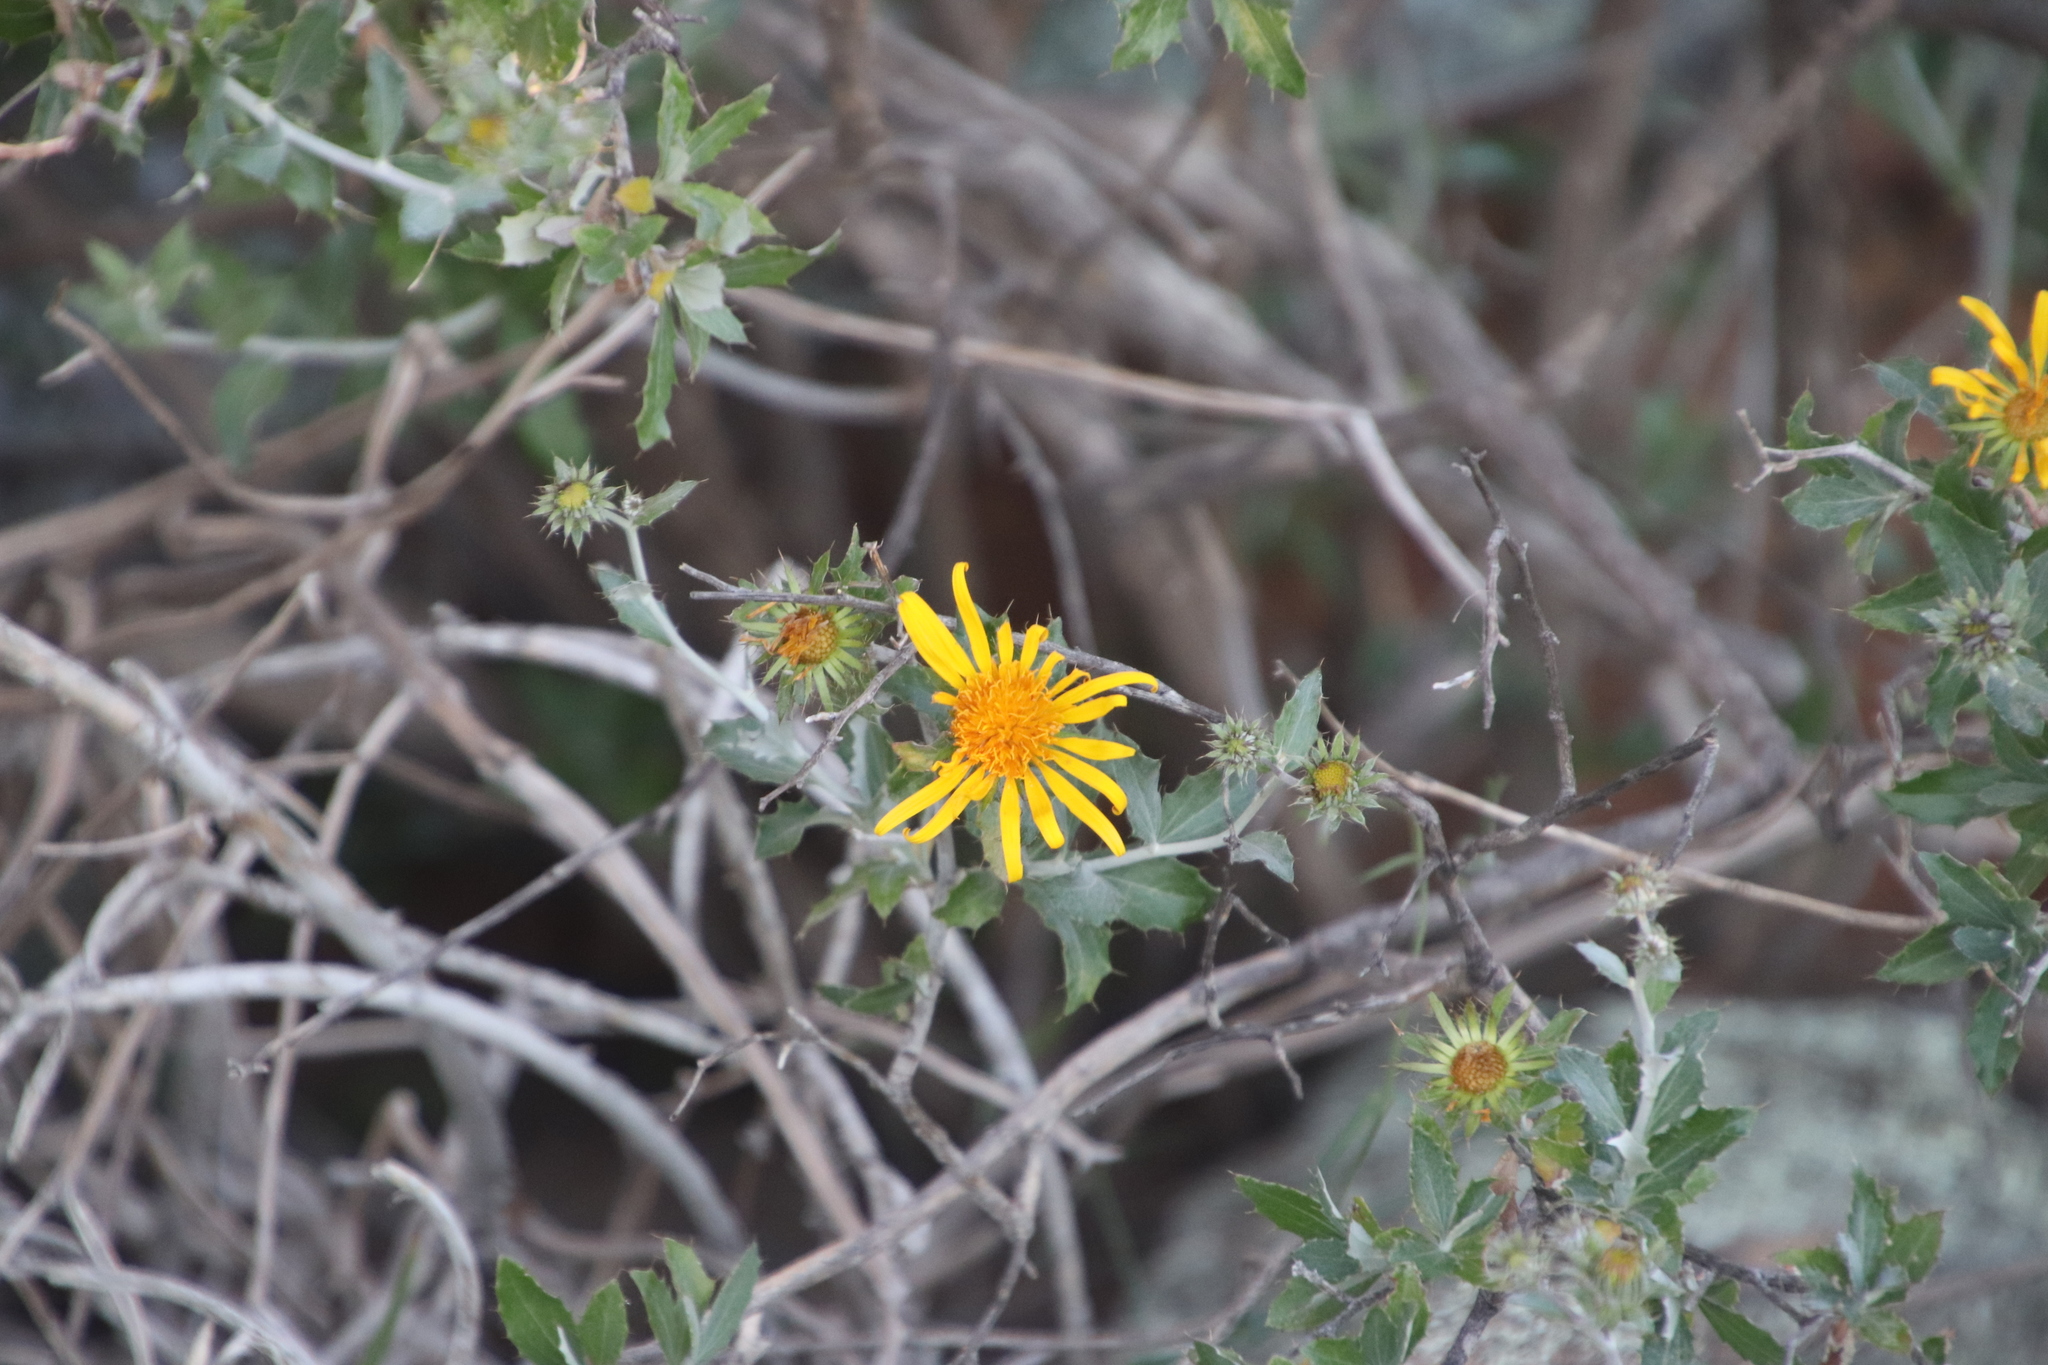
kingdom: Plantae
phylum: Tracheophyta
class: Magnoliopsida
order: Asterales
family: Asteraceae
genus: Berkheya
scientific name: Berkheya fruticosa
